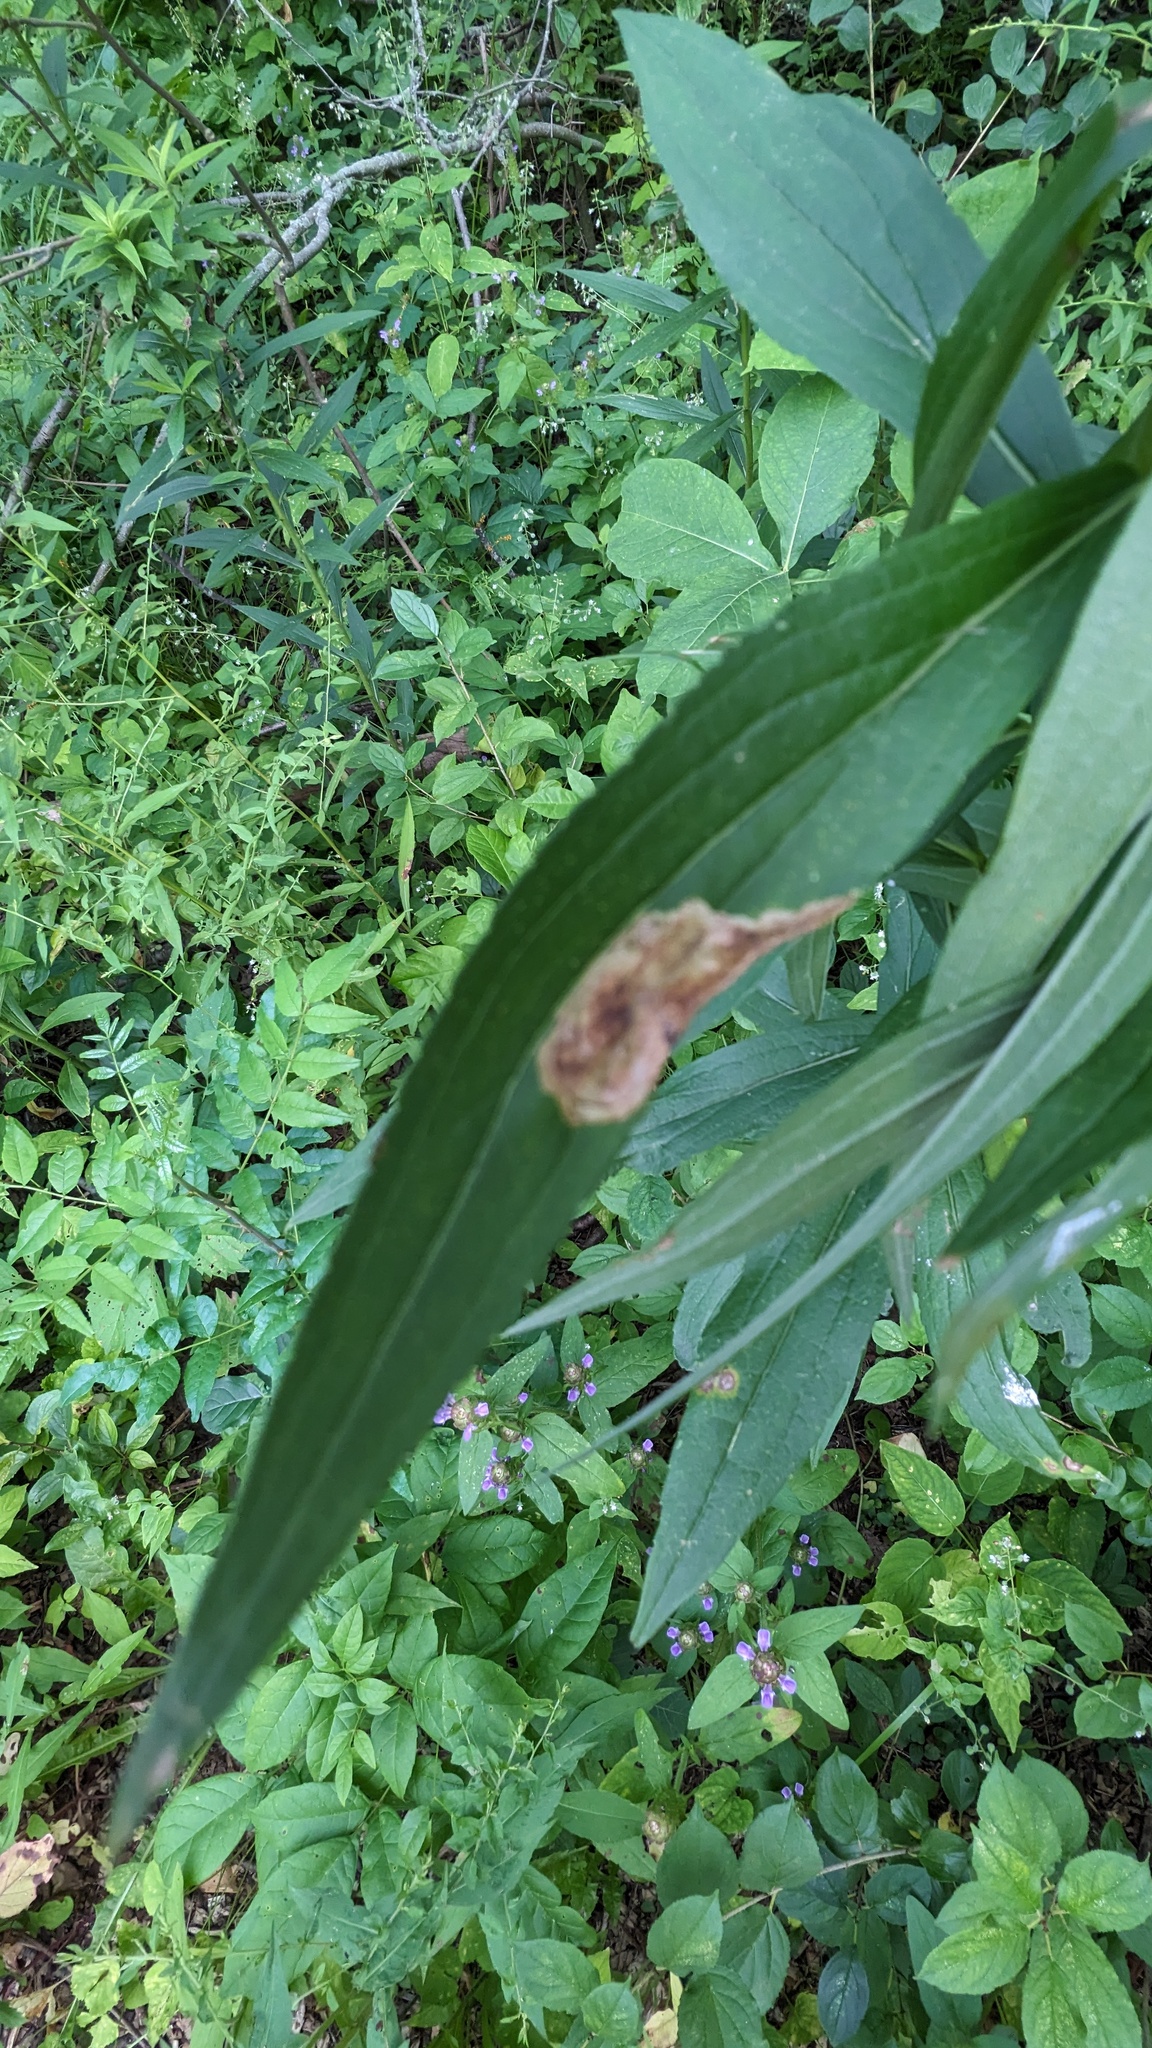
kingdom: Animalia
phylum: Arthropoda
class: Insecta
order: Diptera
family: Agromyzidae
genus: Nemorimyza
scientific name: Nemorimyza posticata
